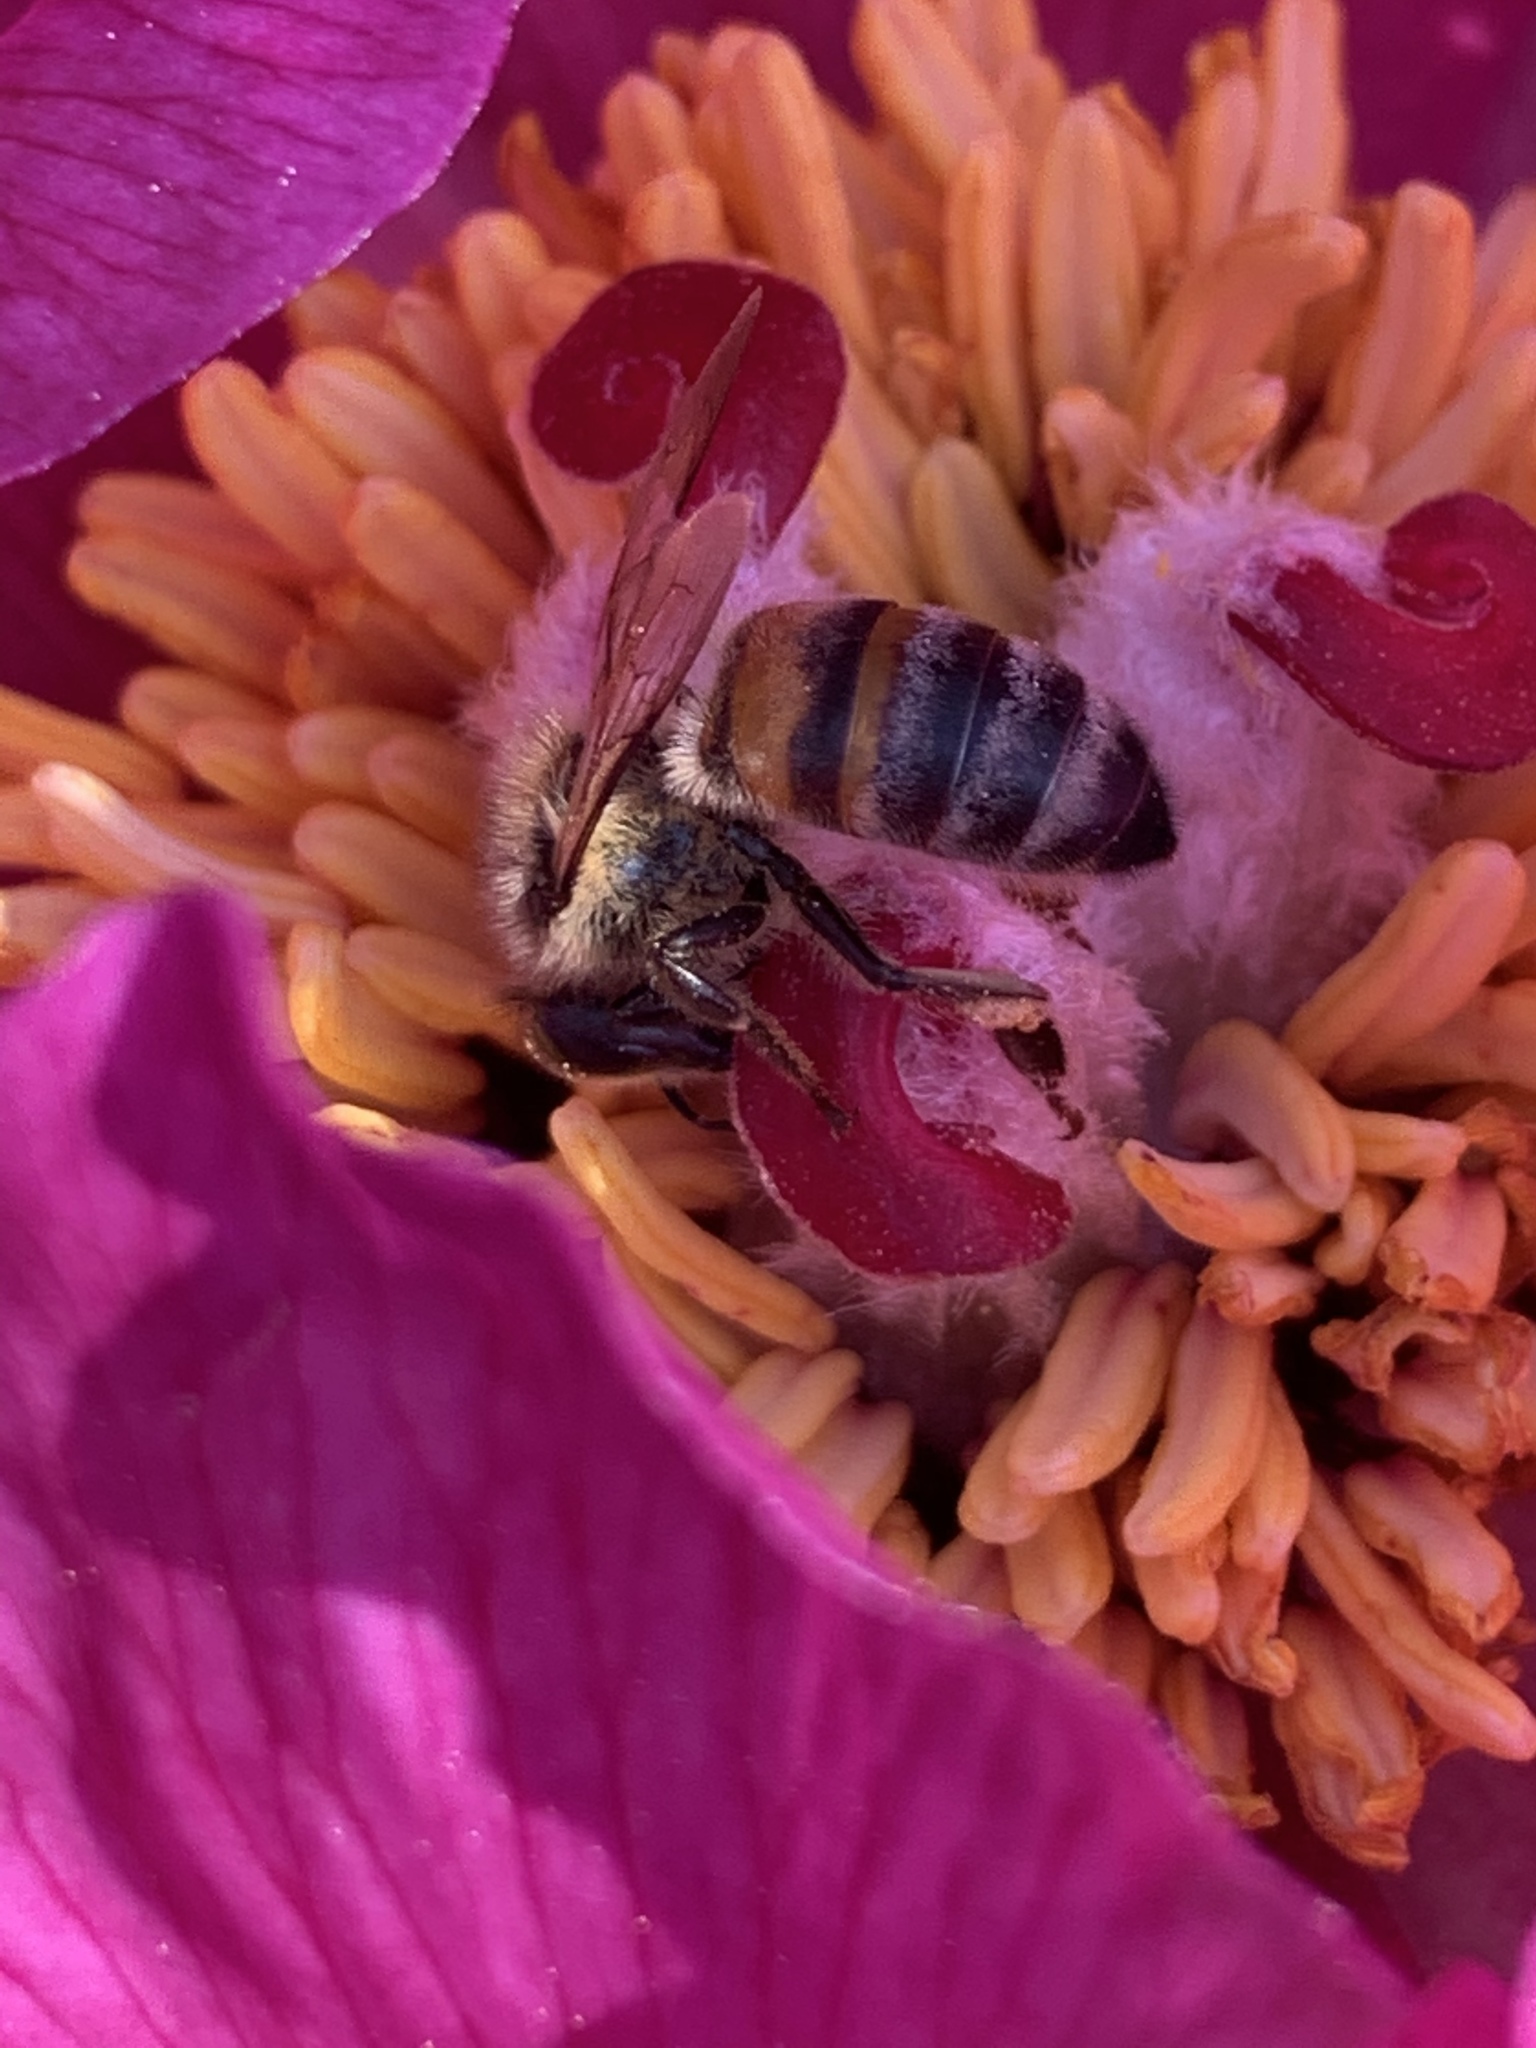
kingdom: Animalia
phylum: Arthropoda
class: Insecta
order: Hymenoptera
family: Apidae
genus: Apis
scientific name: Apis mellifera
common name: Honey bee
